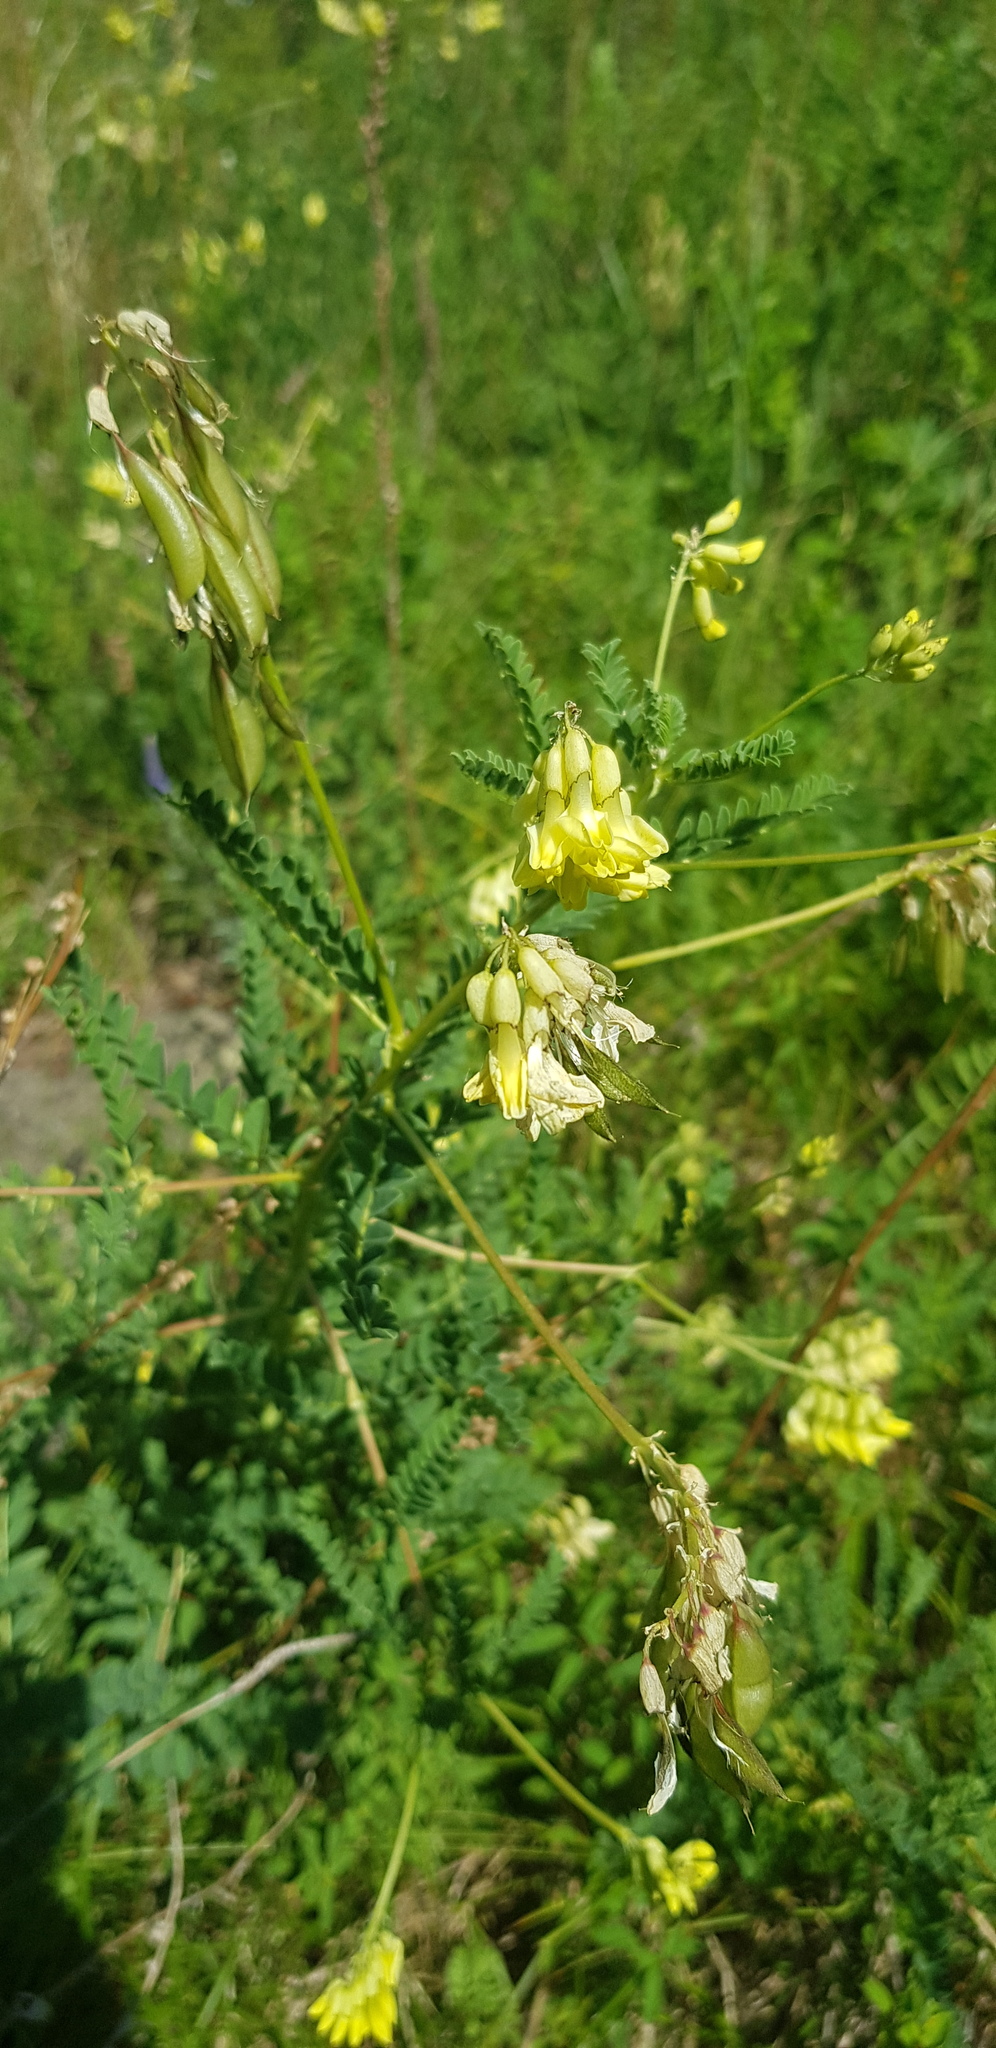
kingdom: Plantae
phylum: Tracheophyta
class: Magnoliopsida
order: Fabales
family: Fabaceae
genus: Astragalus
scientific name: Astragalus
